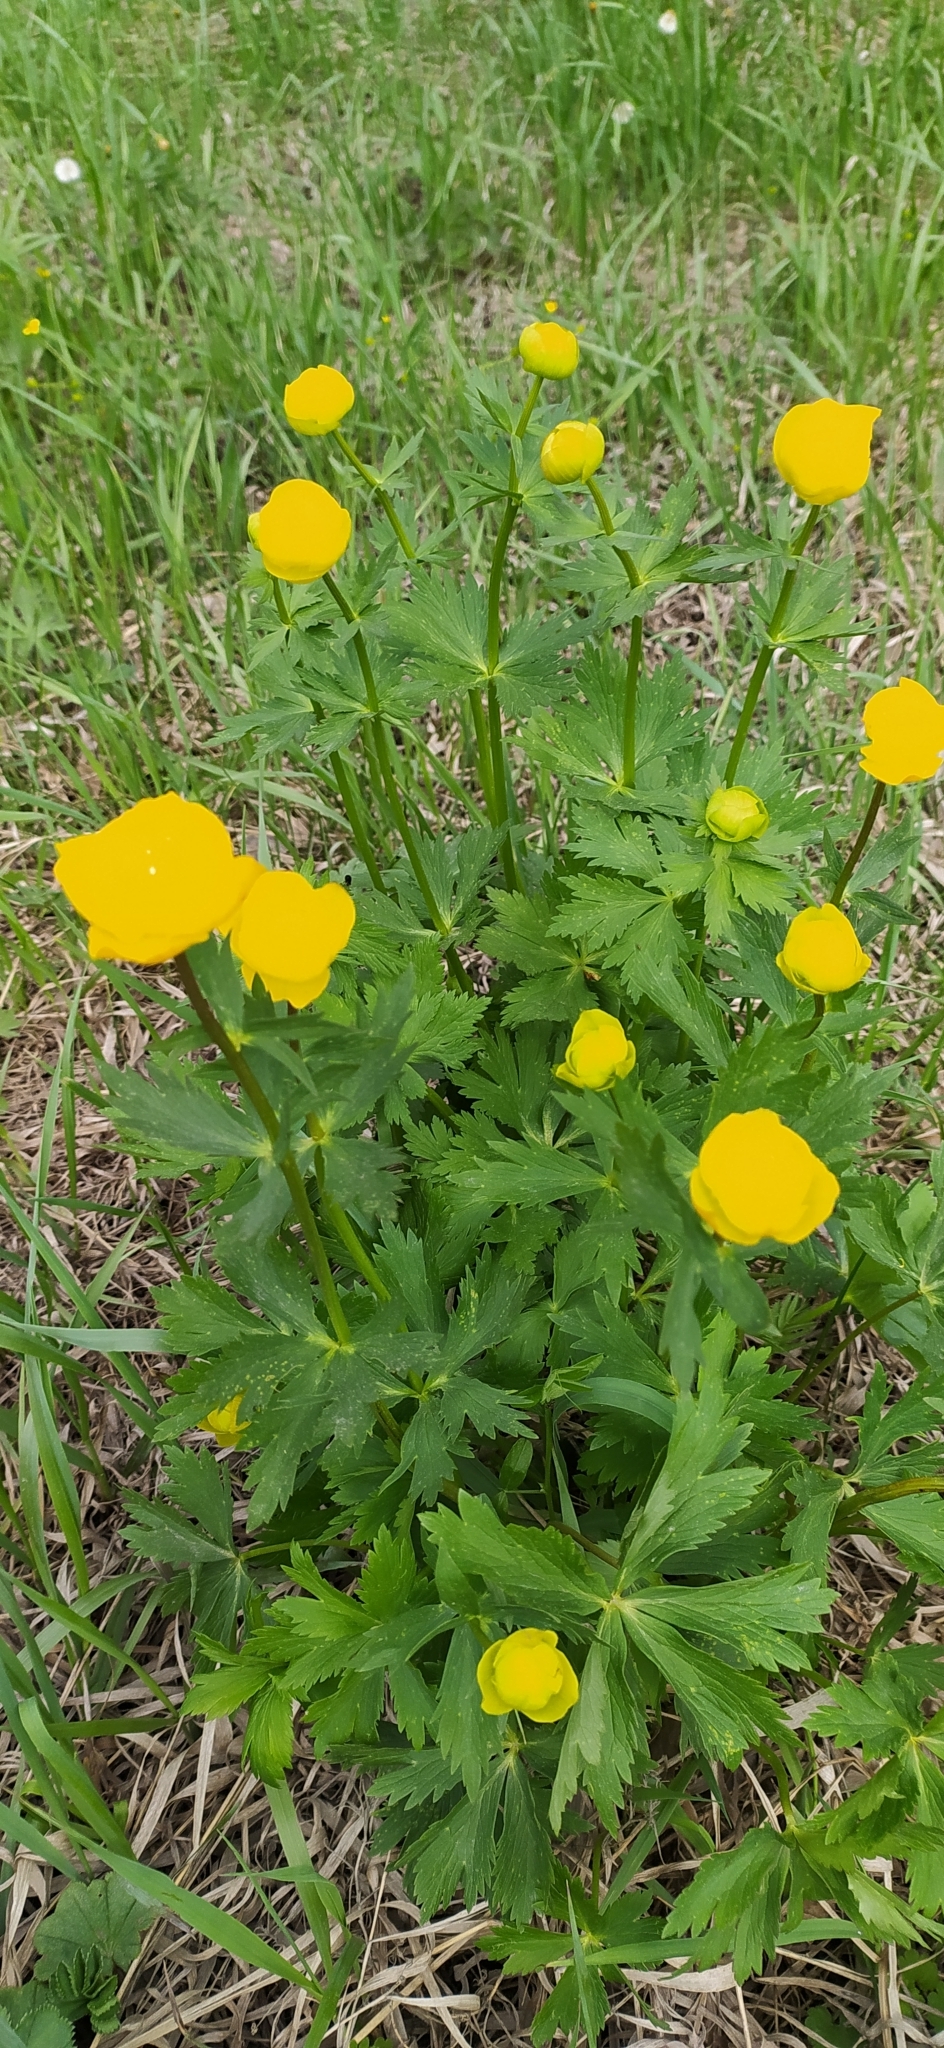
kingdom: Plantae
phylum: Tracheophyta
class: Magnoliopsida
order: Ranunculales
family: Ranunculaceae
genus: Trollius
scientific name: Trollius europaeus
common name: European globeflower
